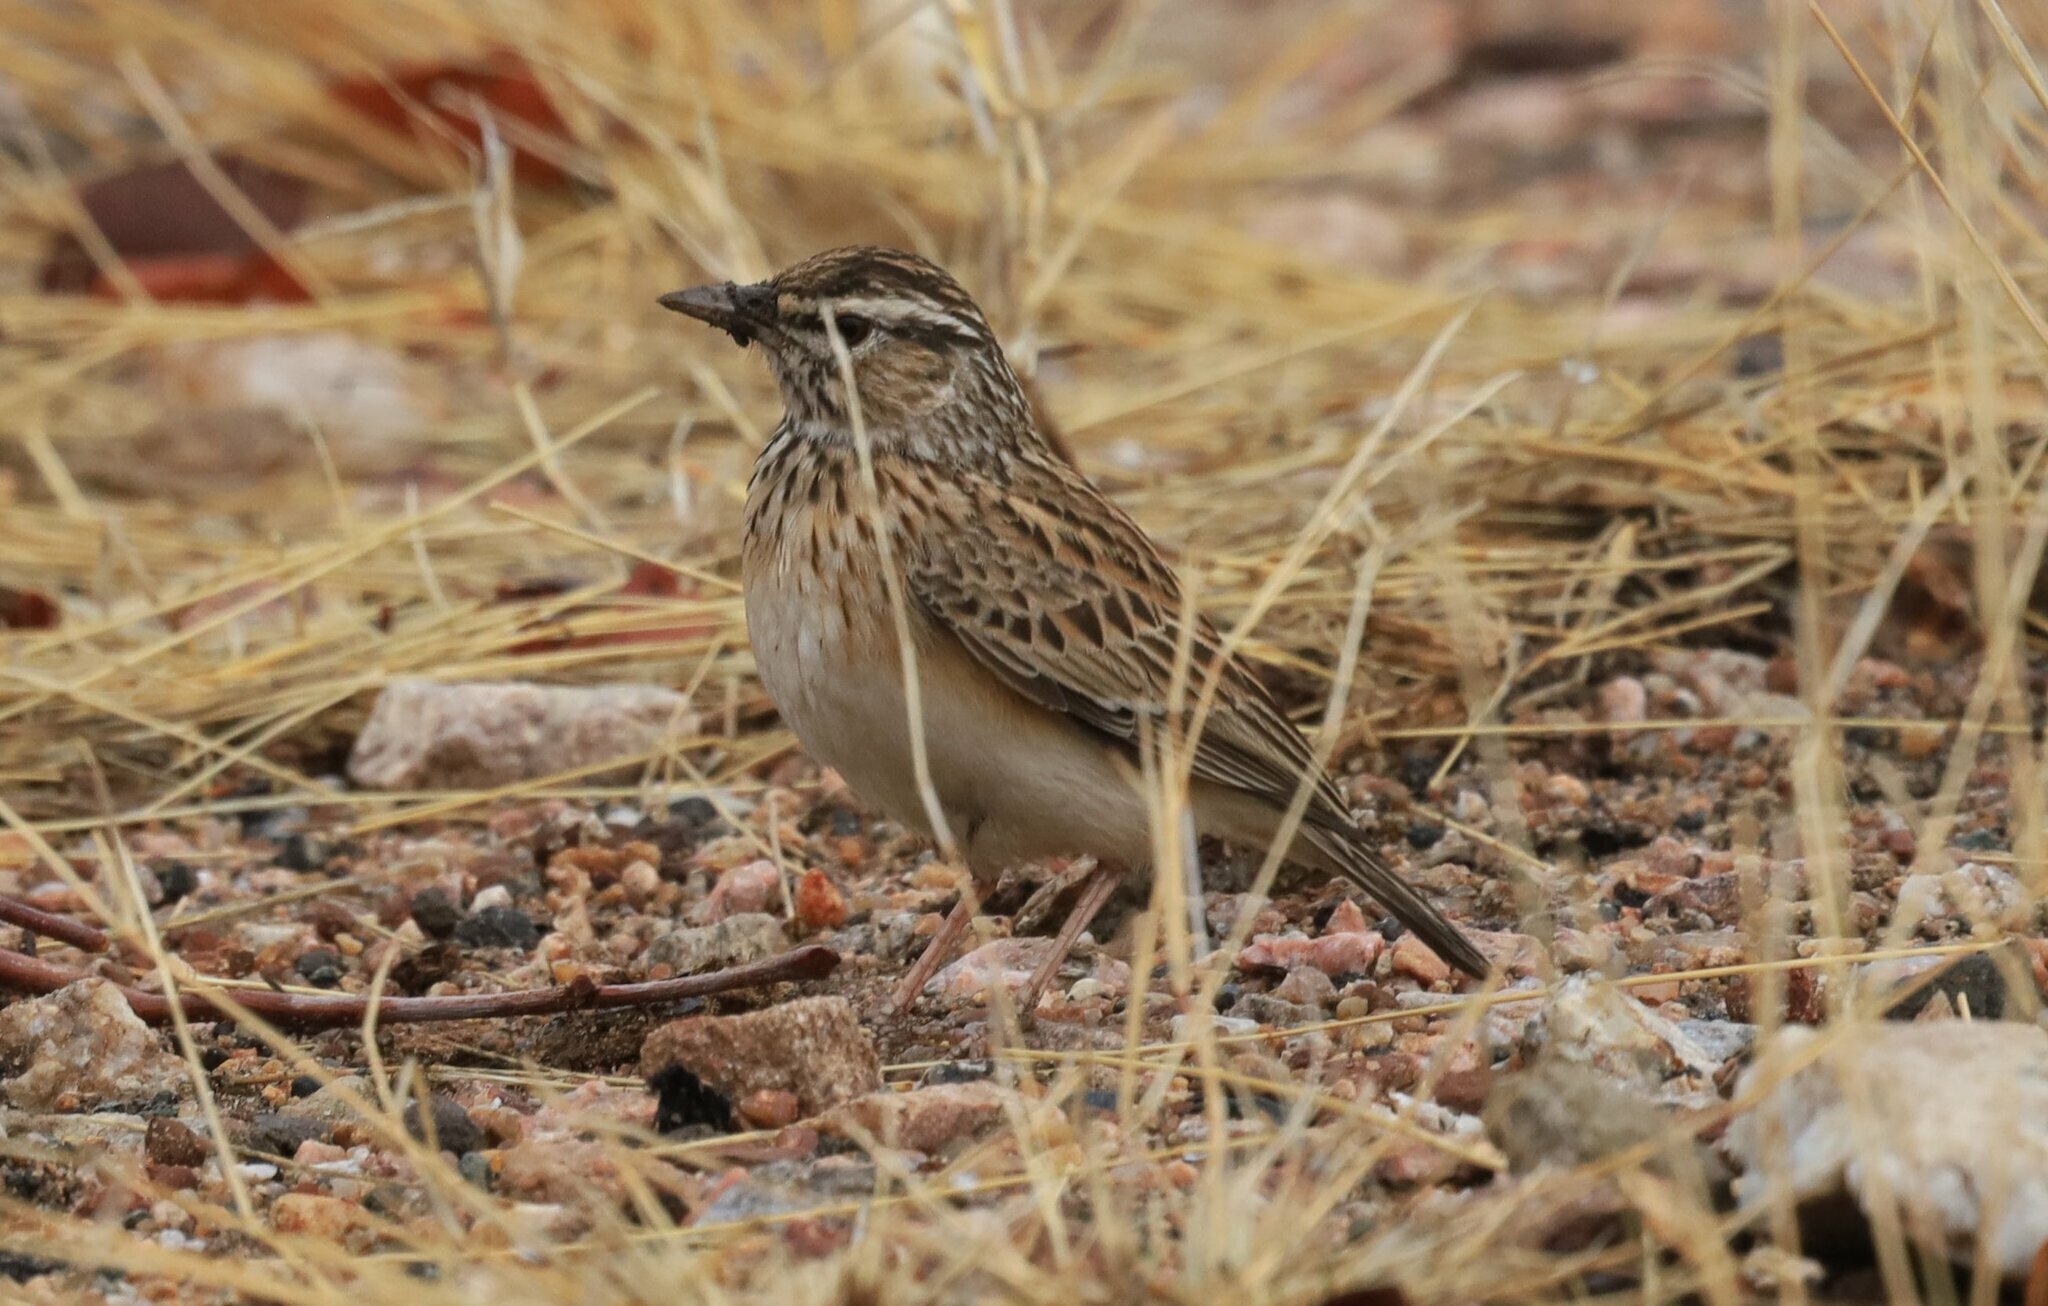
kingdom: Animalia
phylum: Chordata
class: Aves
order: Passeriformes
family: Alaudidae
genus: Calendulauda
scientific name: Calendulauda sabota
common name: Sabota lark
